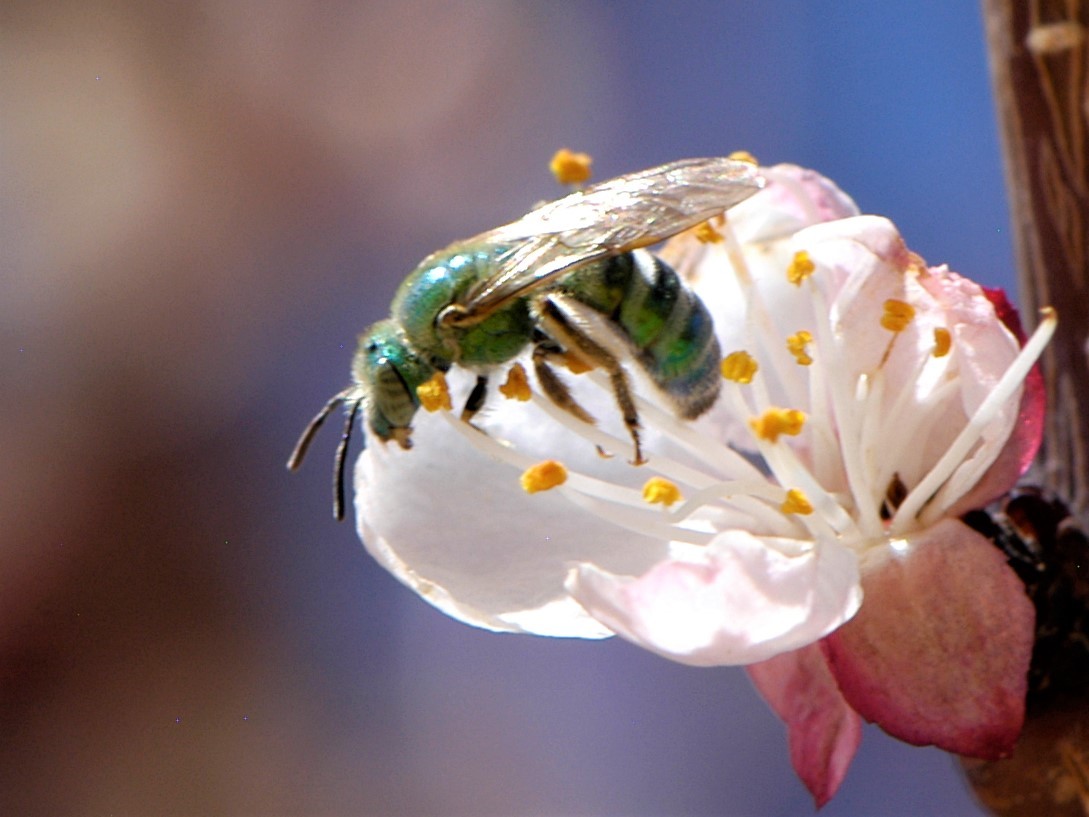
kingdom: Animalia
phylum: Arthropoda
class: Insecta
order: Hymenoptera
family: Halictidae
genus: Agapostemon
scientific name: Agapostemon
